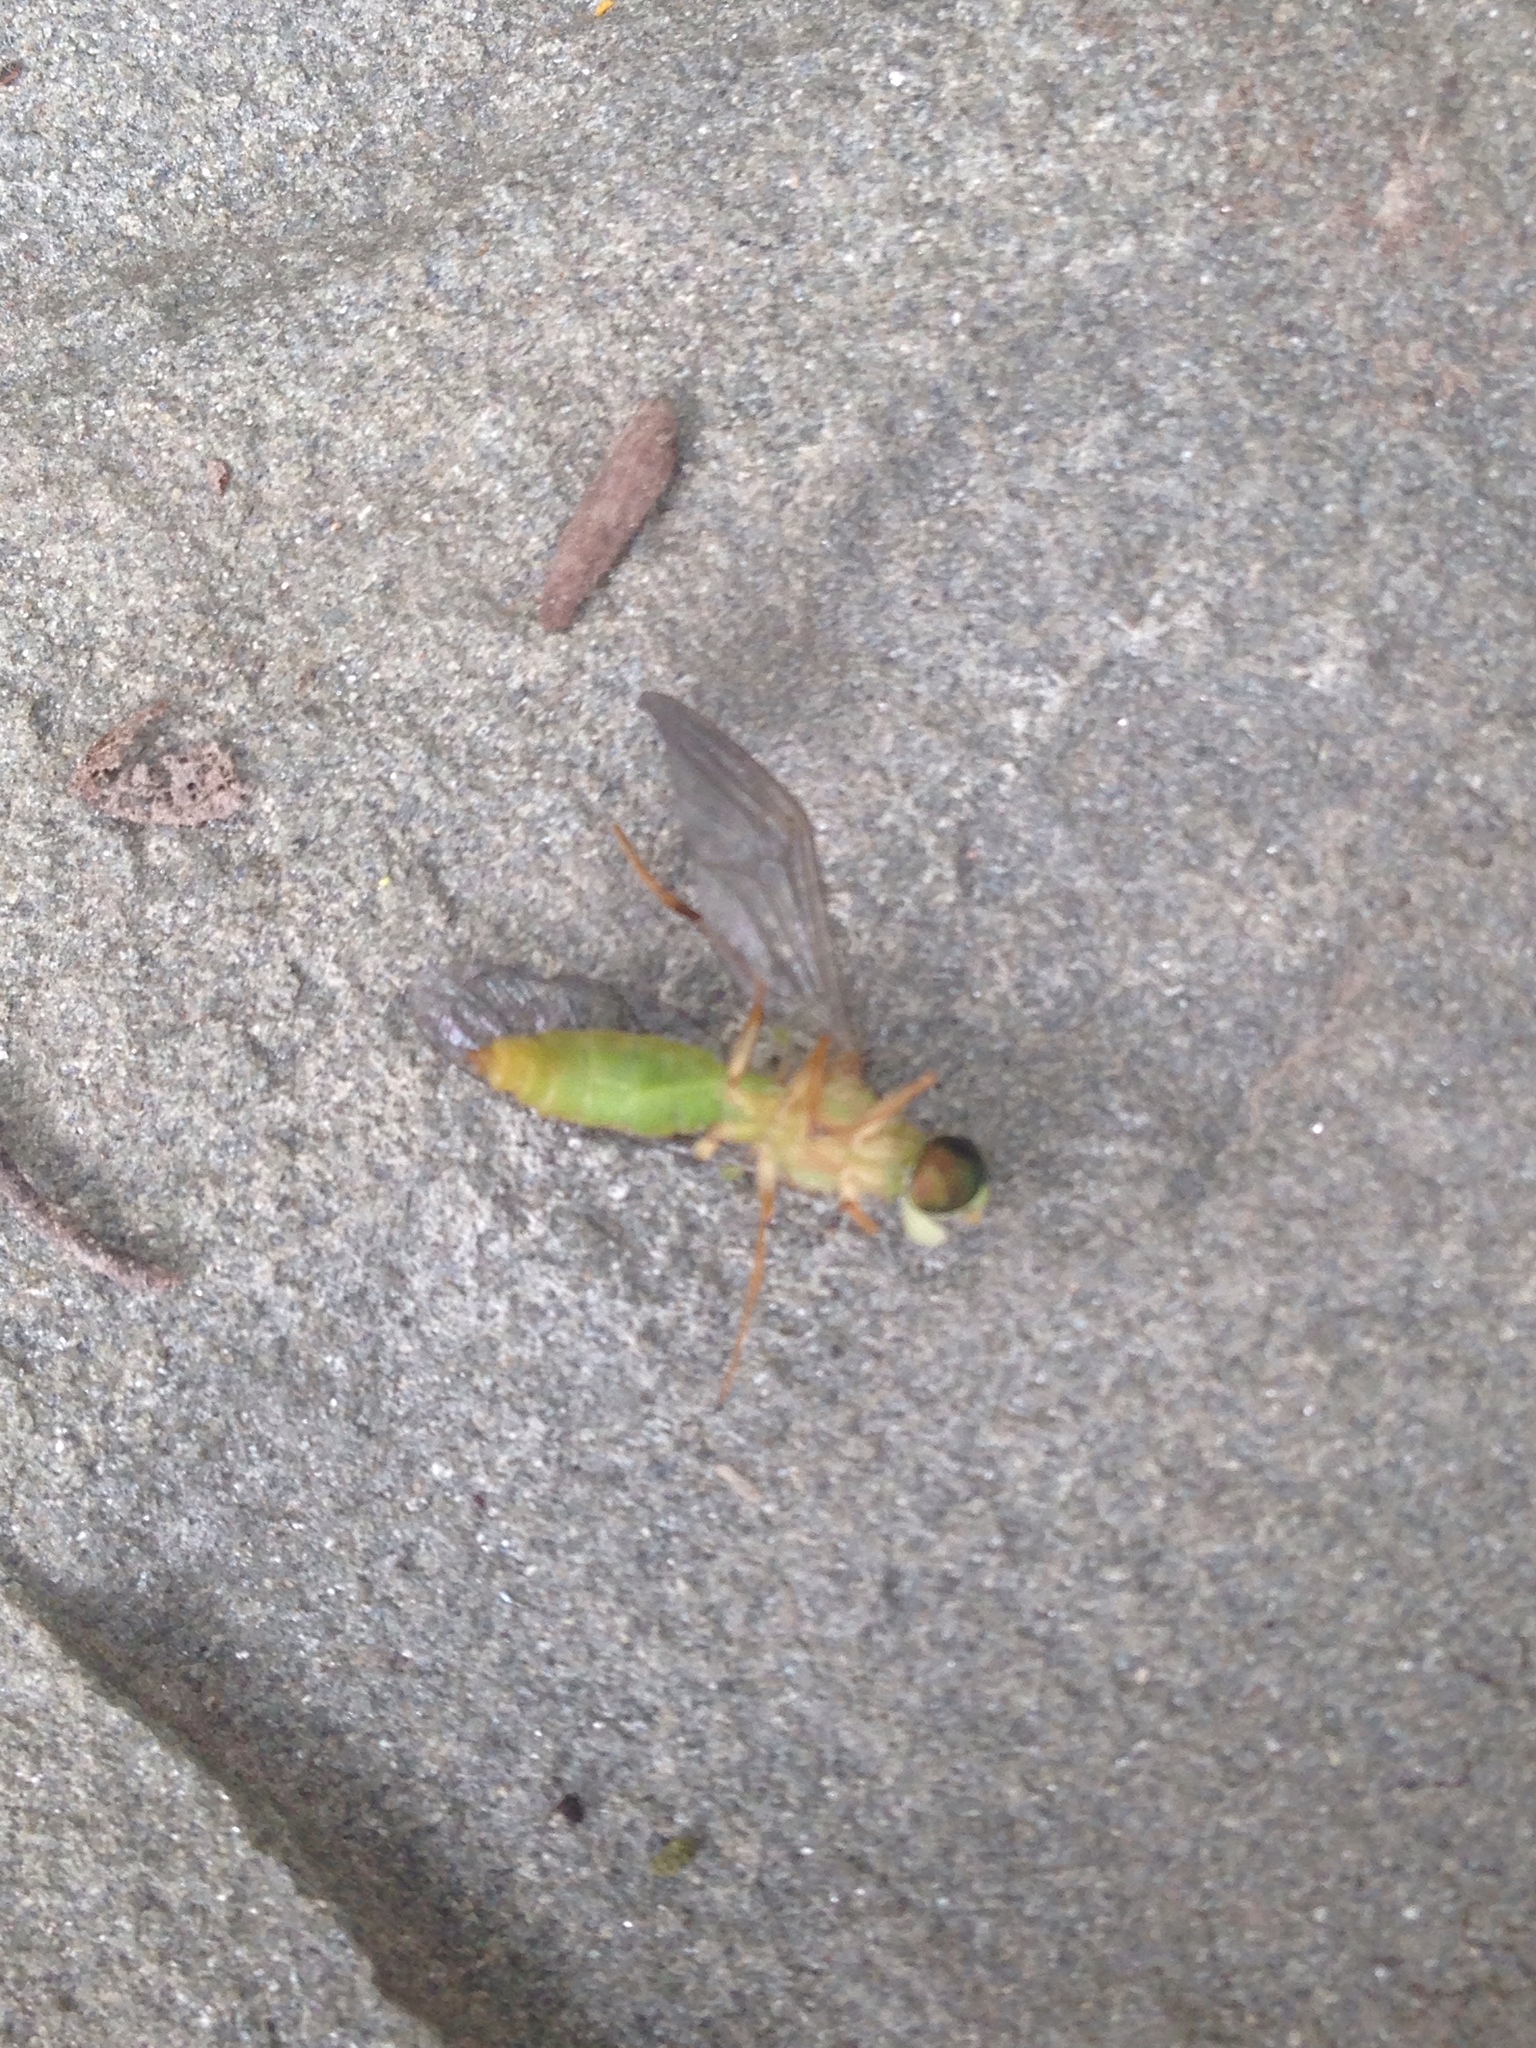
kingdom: Animalia
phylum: Arthropoda
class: Insecta
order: Diptera
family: Stratiomyidae
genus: Ptecticus
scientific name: Ptecticus trivittatus
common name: Compost fly
